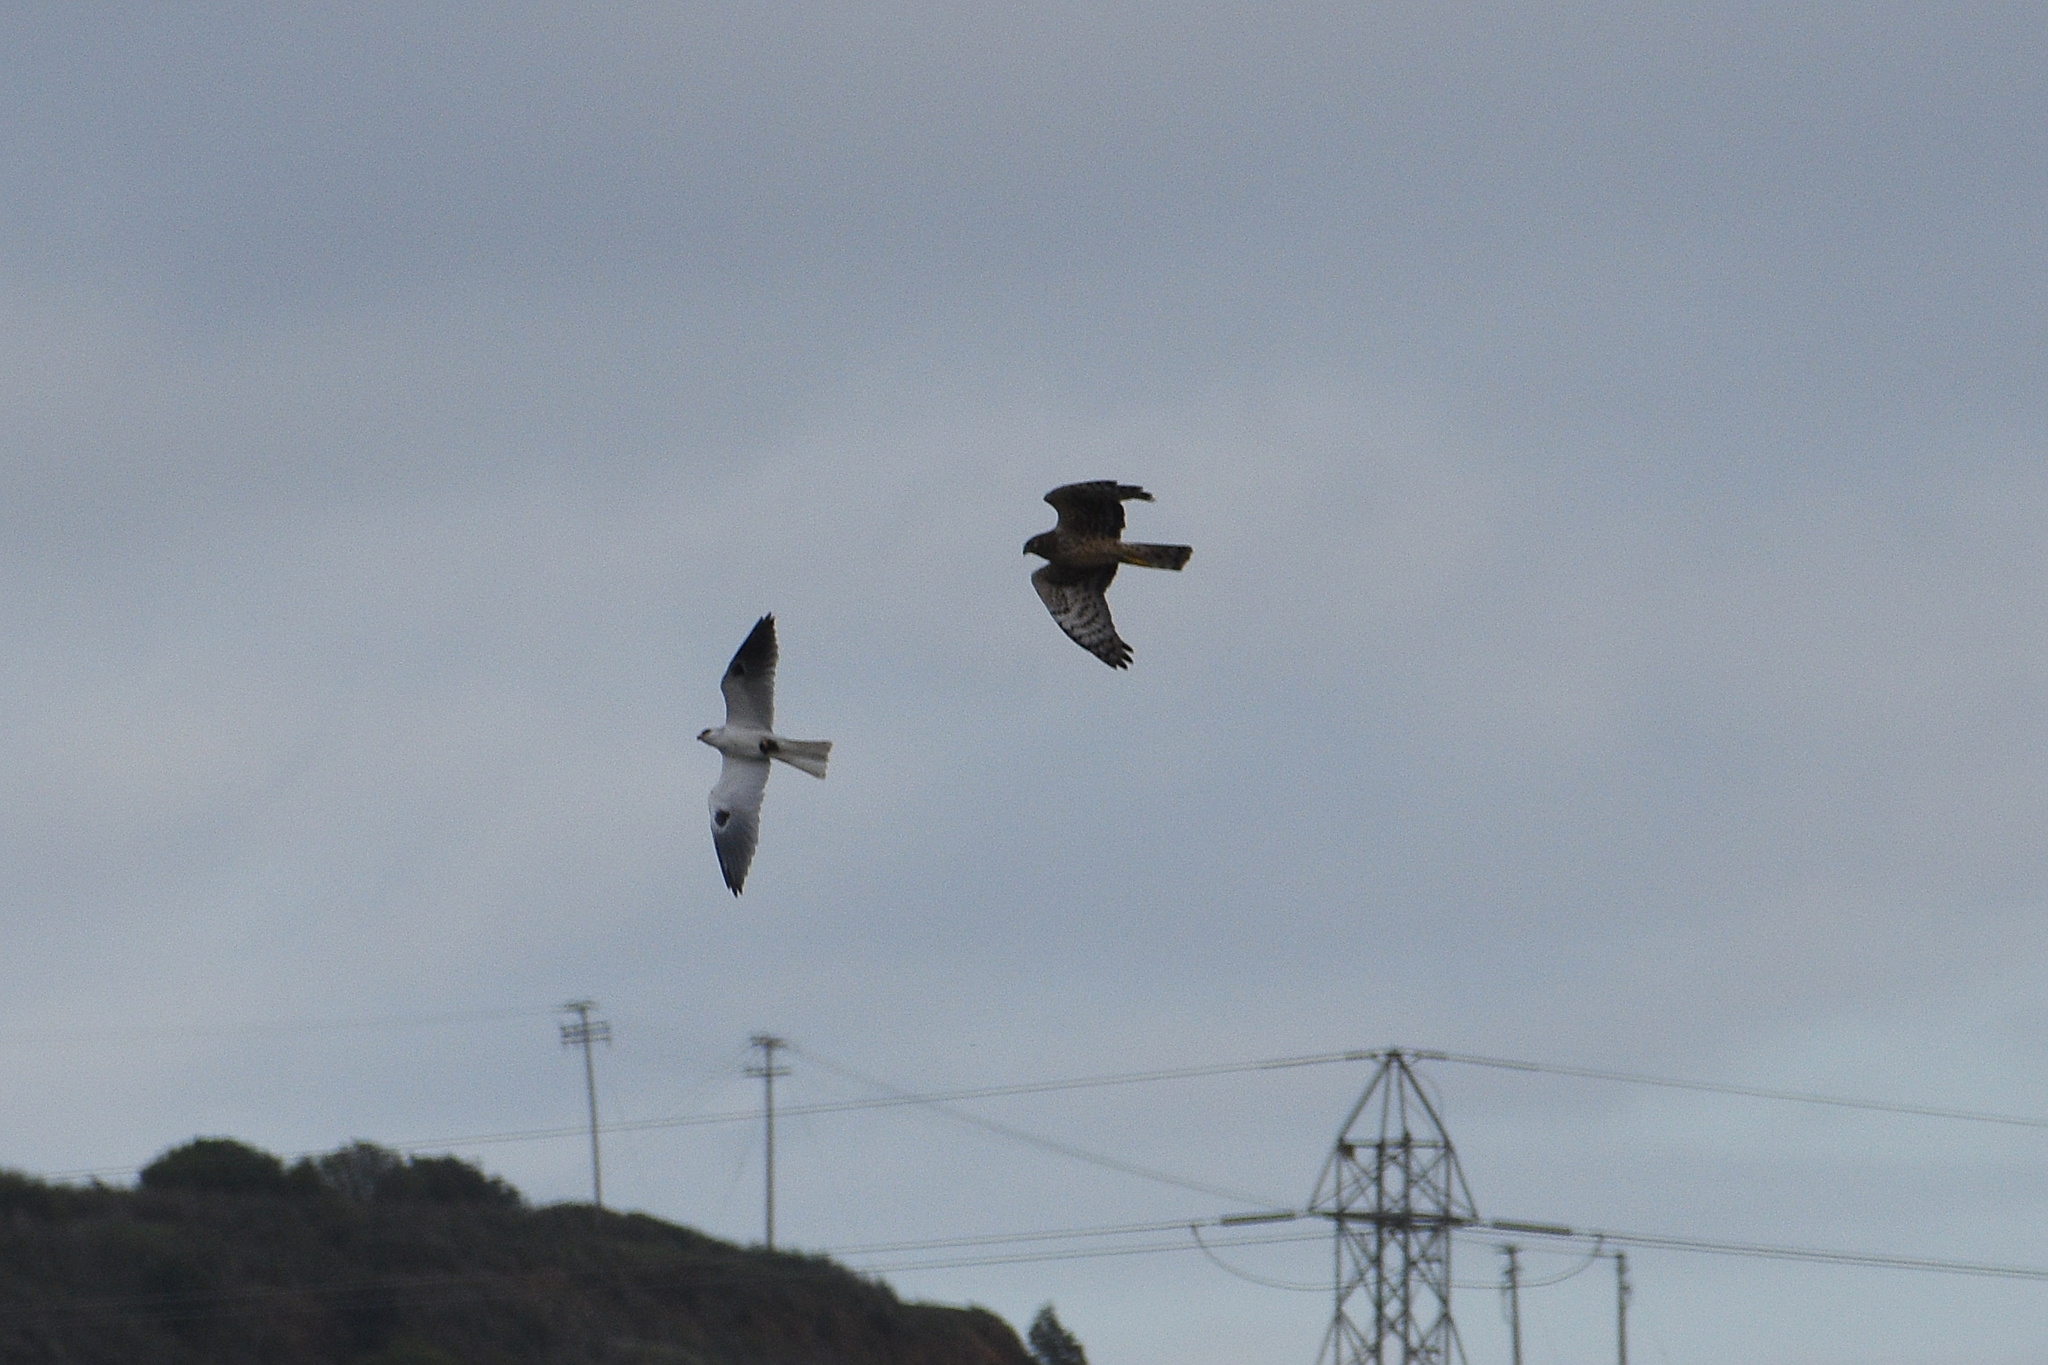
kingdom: Animalia
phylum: Chordata
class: Aves
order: Accipitriformes
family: Accipitridae
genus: Circus
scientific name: Circus cyaneus
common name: Hen harrier
